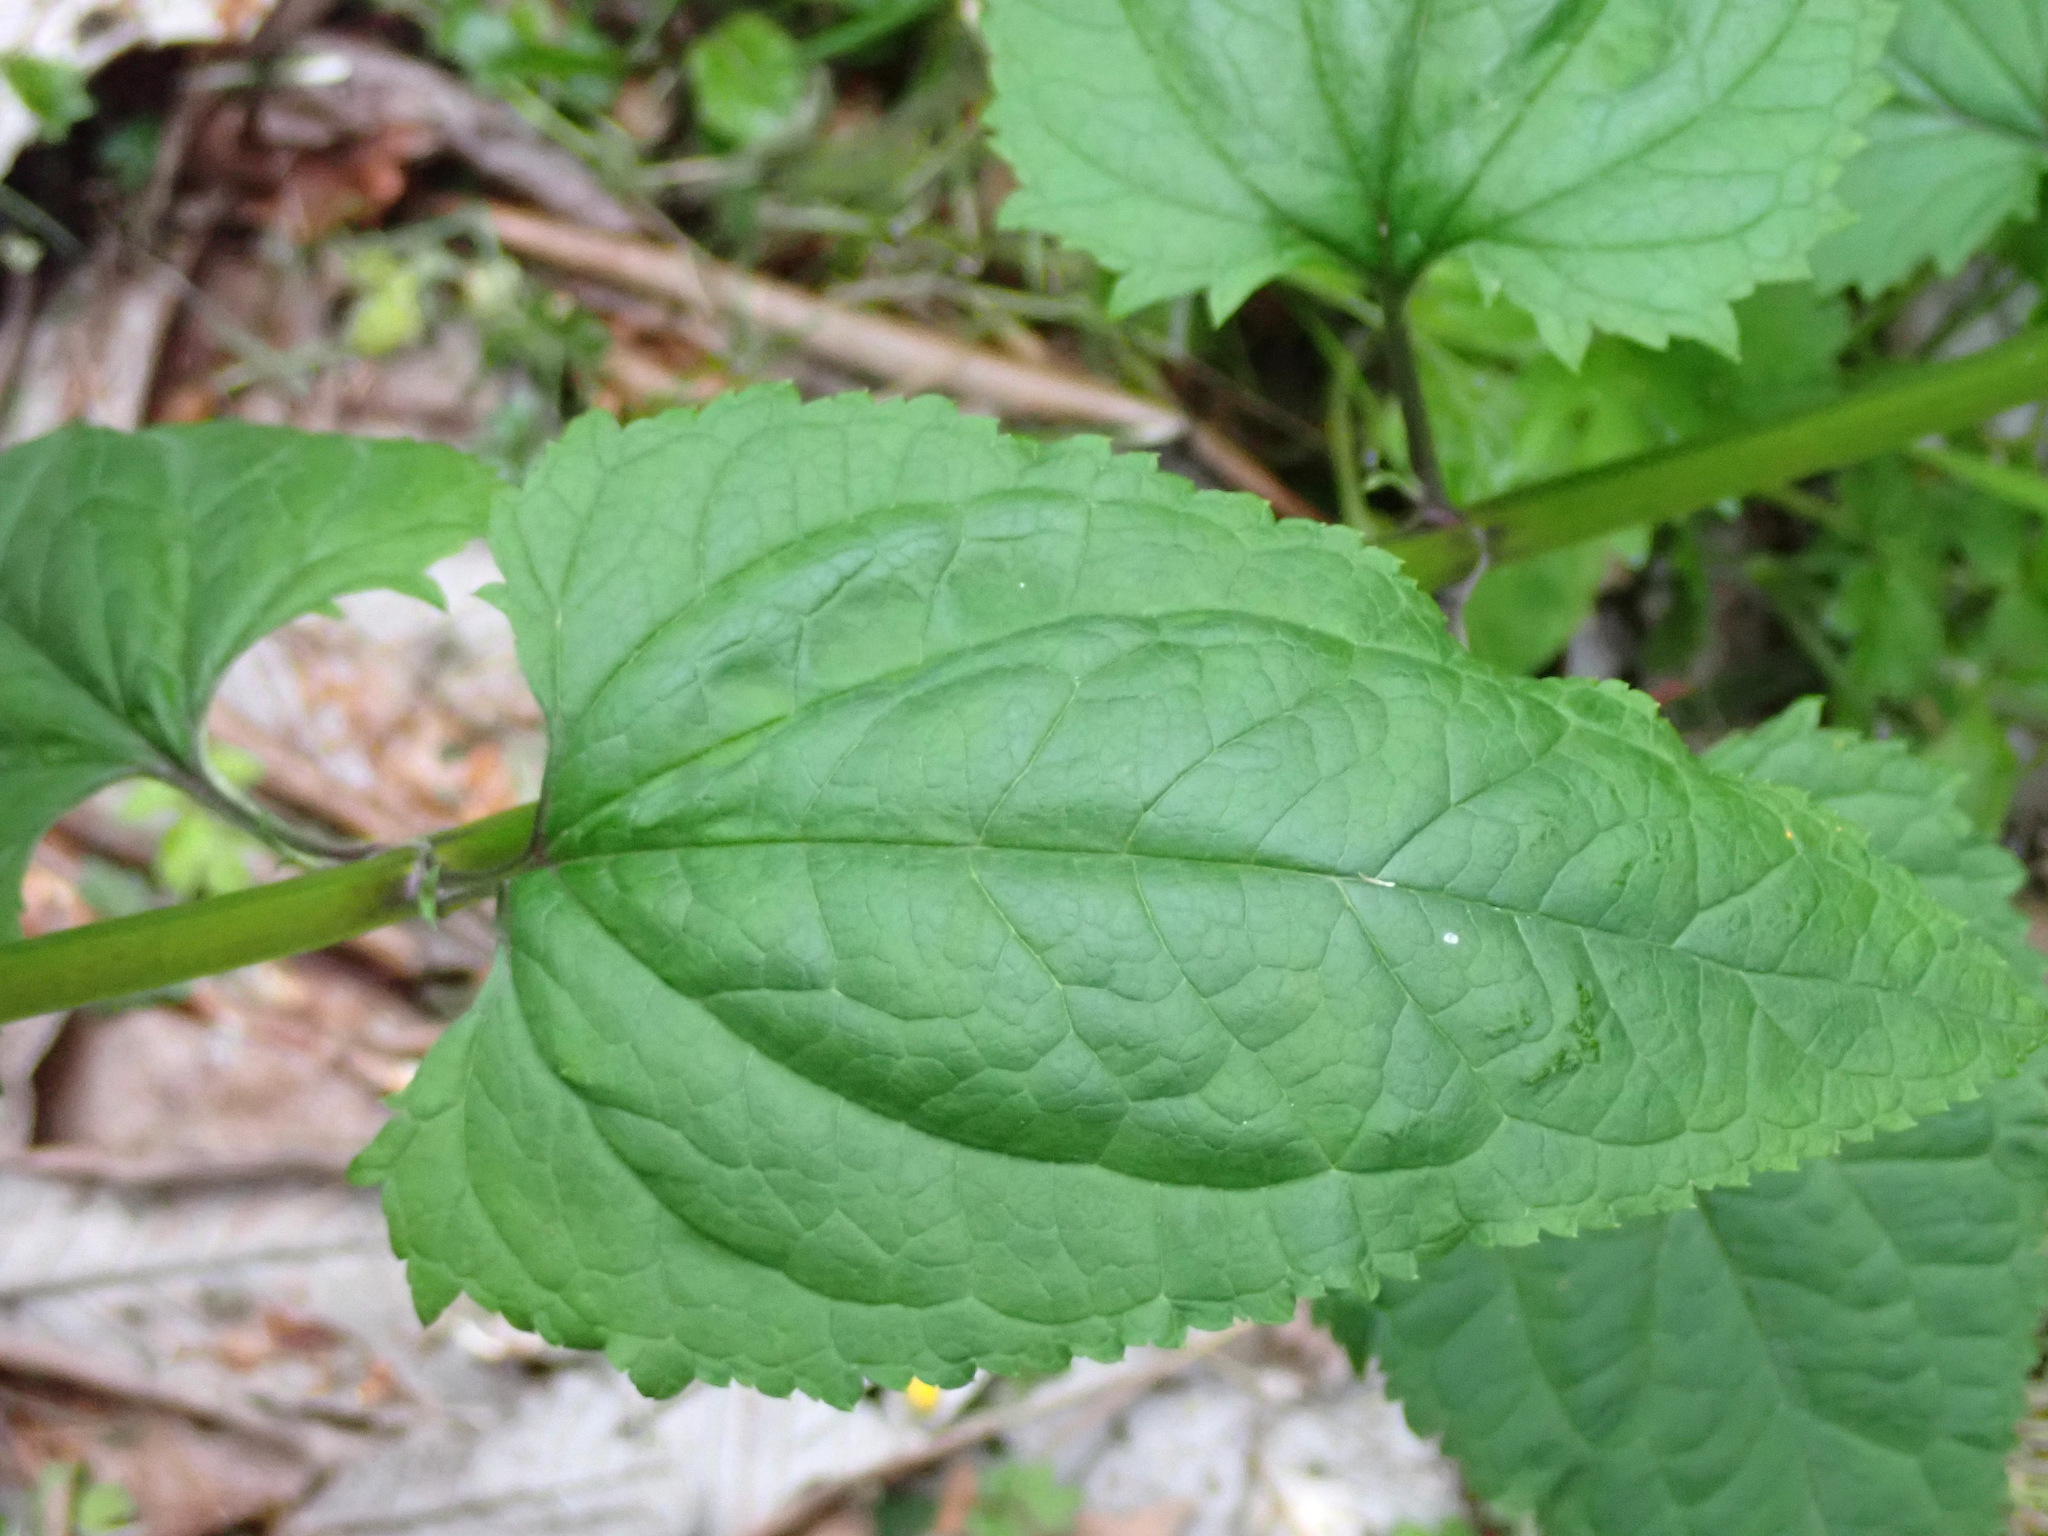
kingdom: Plantae
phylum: Tracheophyta
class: Magnoliopsida
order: Lamiales
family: Scrophulariaceae
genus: Scrophularia
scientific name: Scrophularia nodosa
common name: Common figwort
